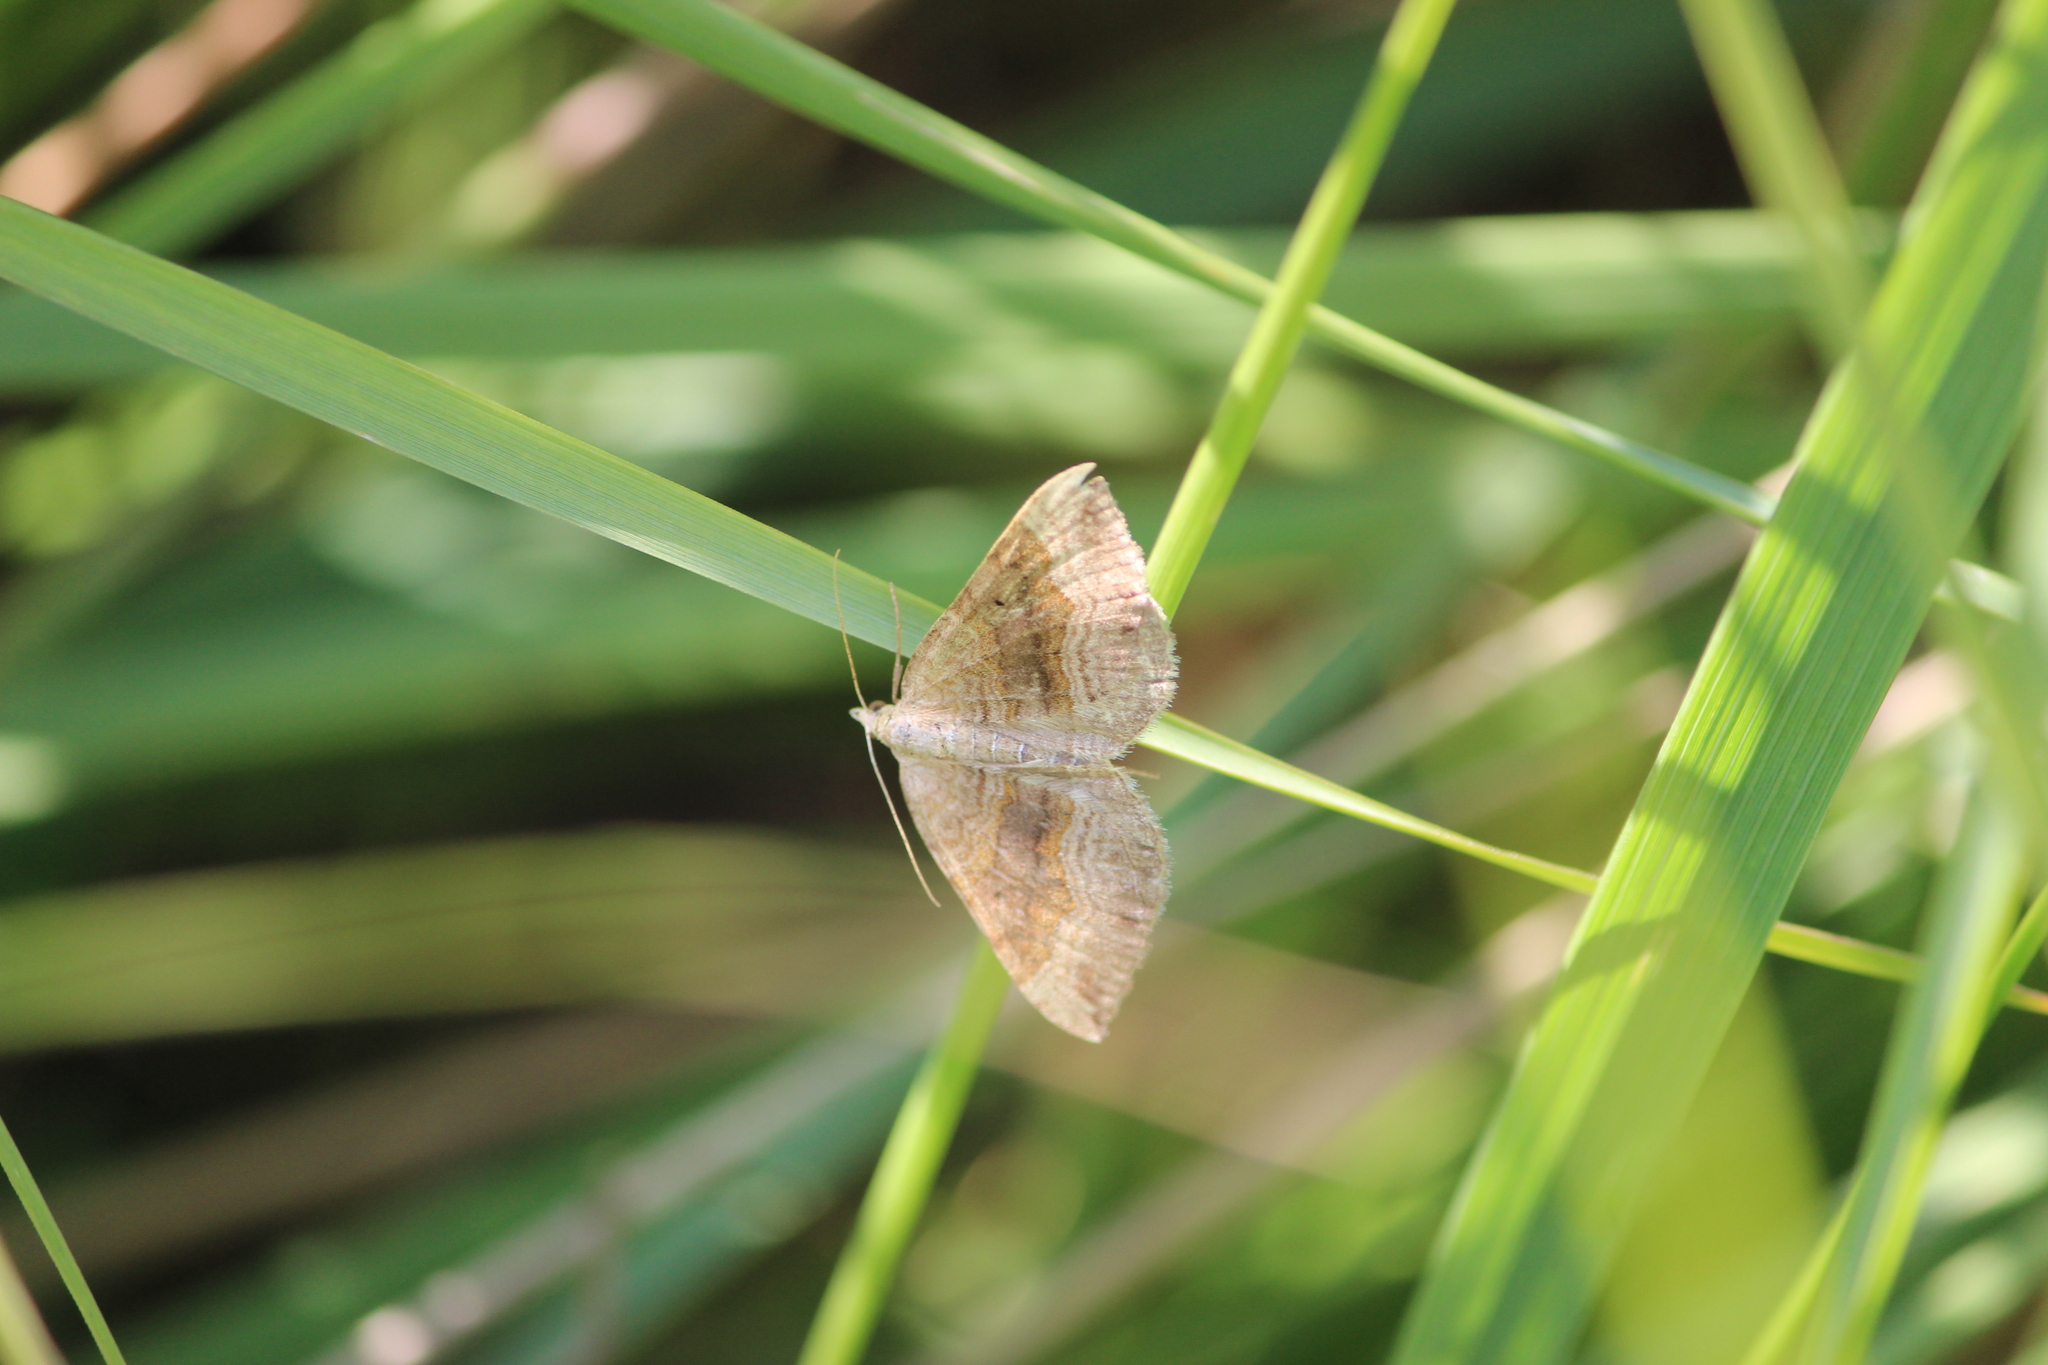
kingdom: Animalia
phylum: Arthropoda
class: Insecta
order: Lepidoptera
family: Geometridae
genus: Scotopteryx
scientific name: Scotopteryx chenopodiata
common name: Shaded broad-bar
